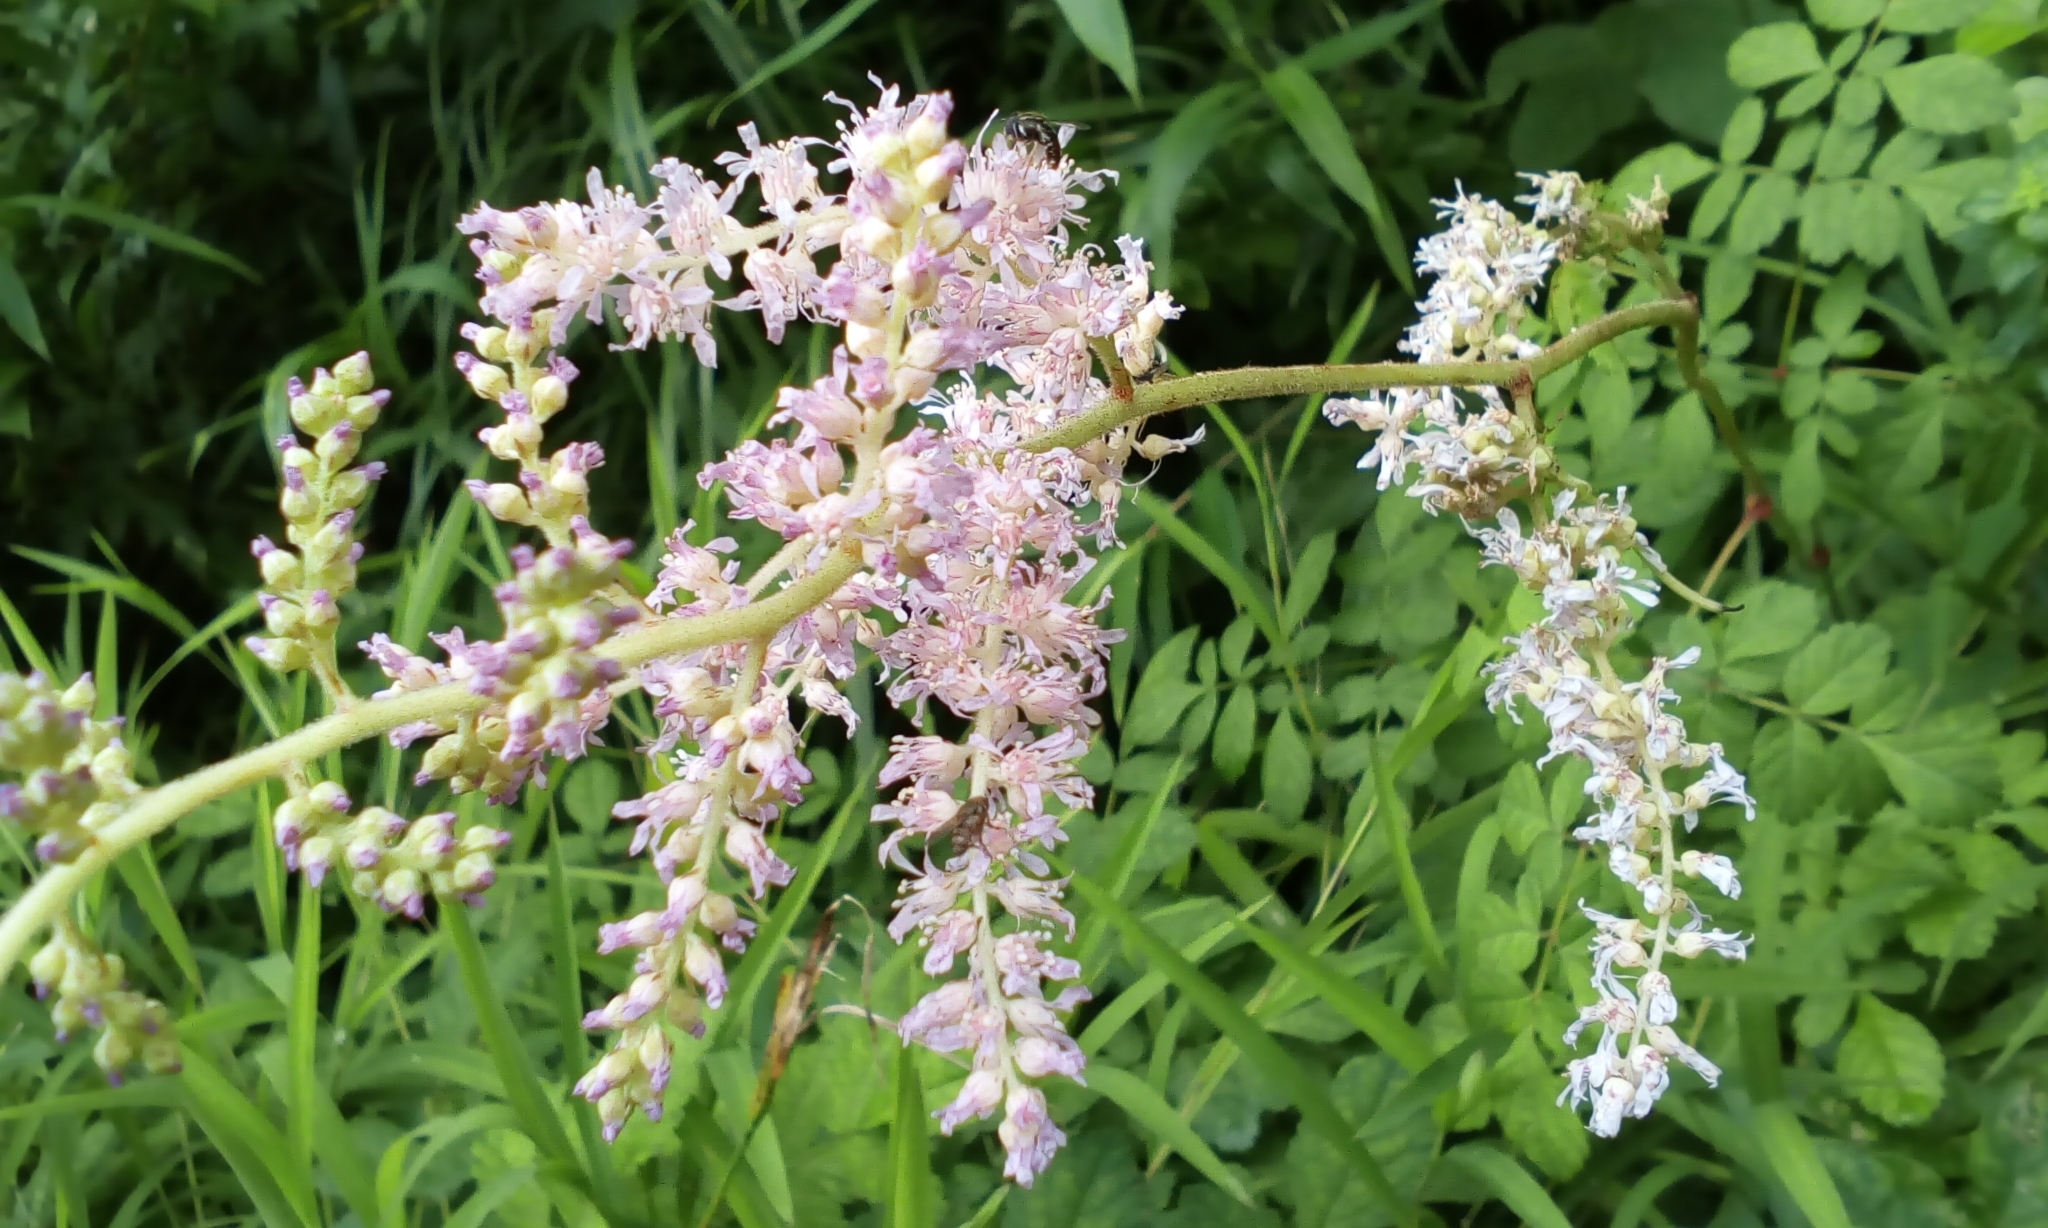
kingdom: Plantae
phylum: Tracheophyta
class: Magnoliopsida
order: Saxifragales
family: Saxifragaceae
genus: Astilbe
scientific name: Astilbe microphylla
